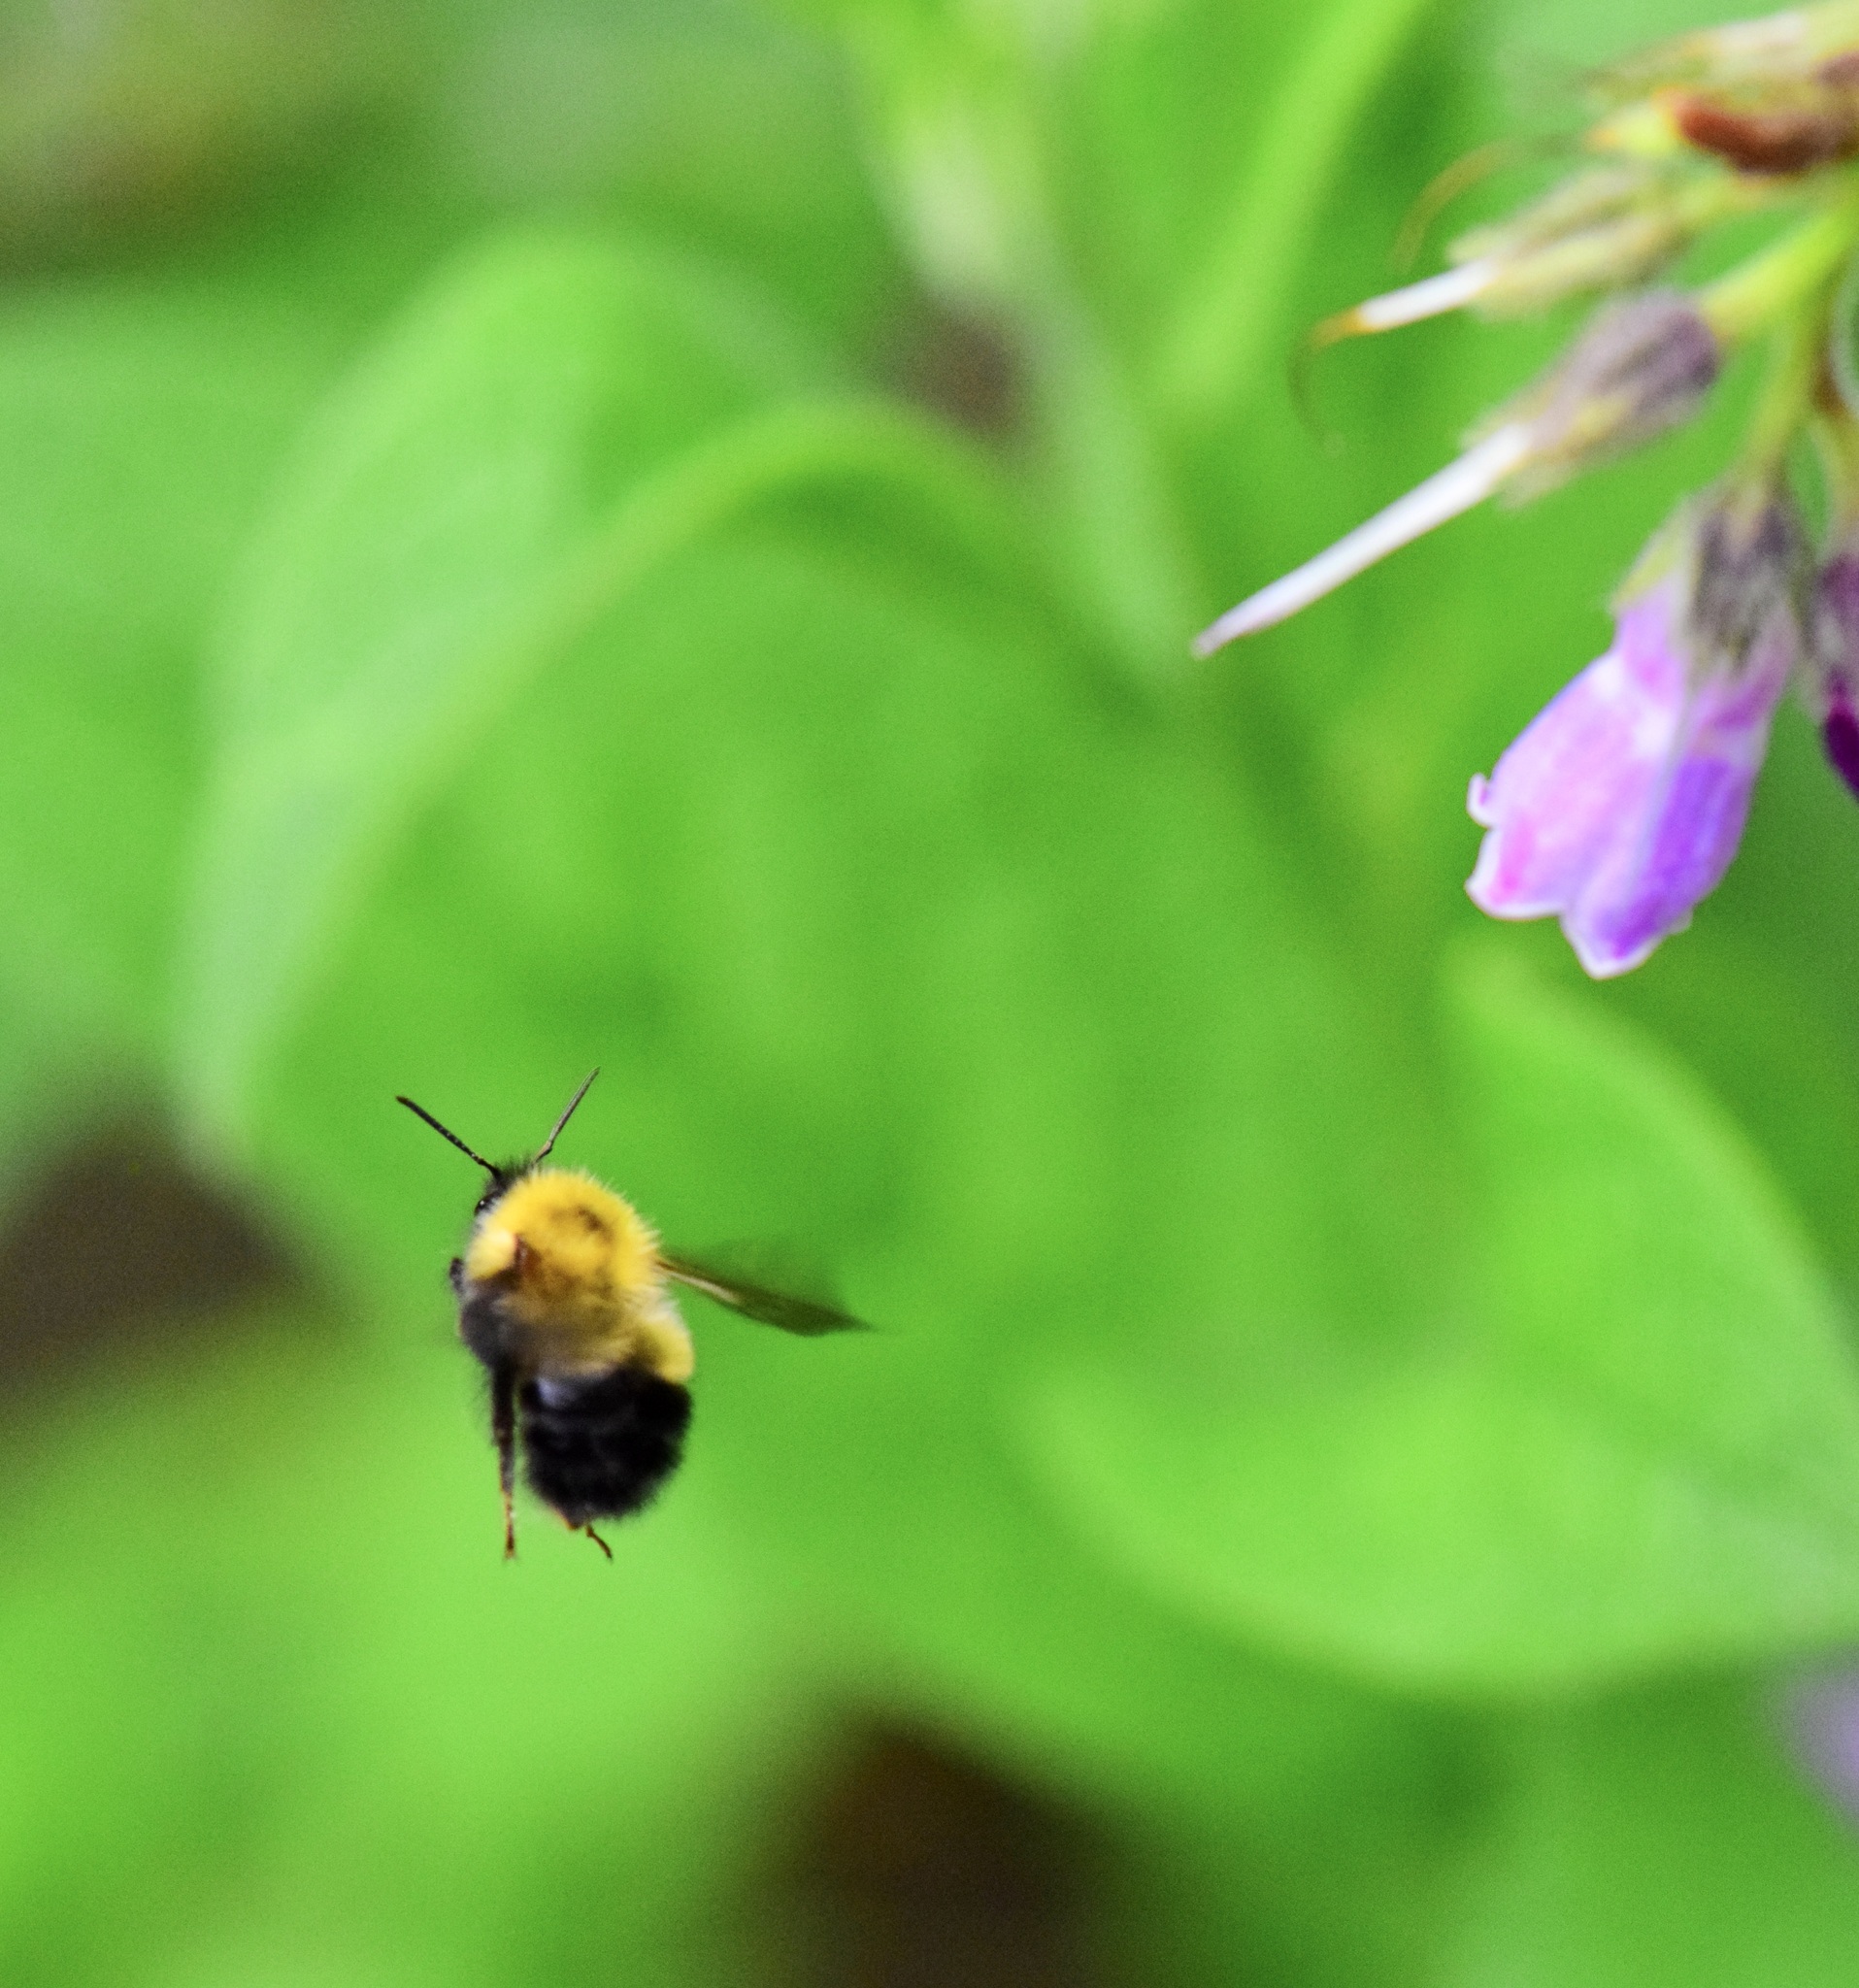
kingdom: Animalia
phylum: Arthropoda
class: Insecta
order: Hymenoptera
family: Apidae
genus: Bombus
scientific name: Bombus perplexus
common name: Confusing bumble bee
